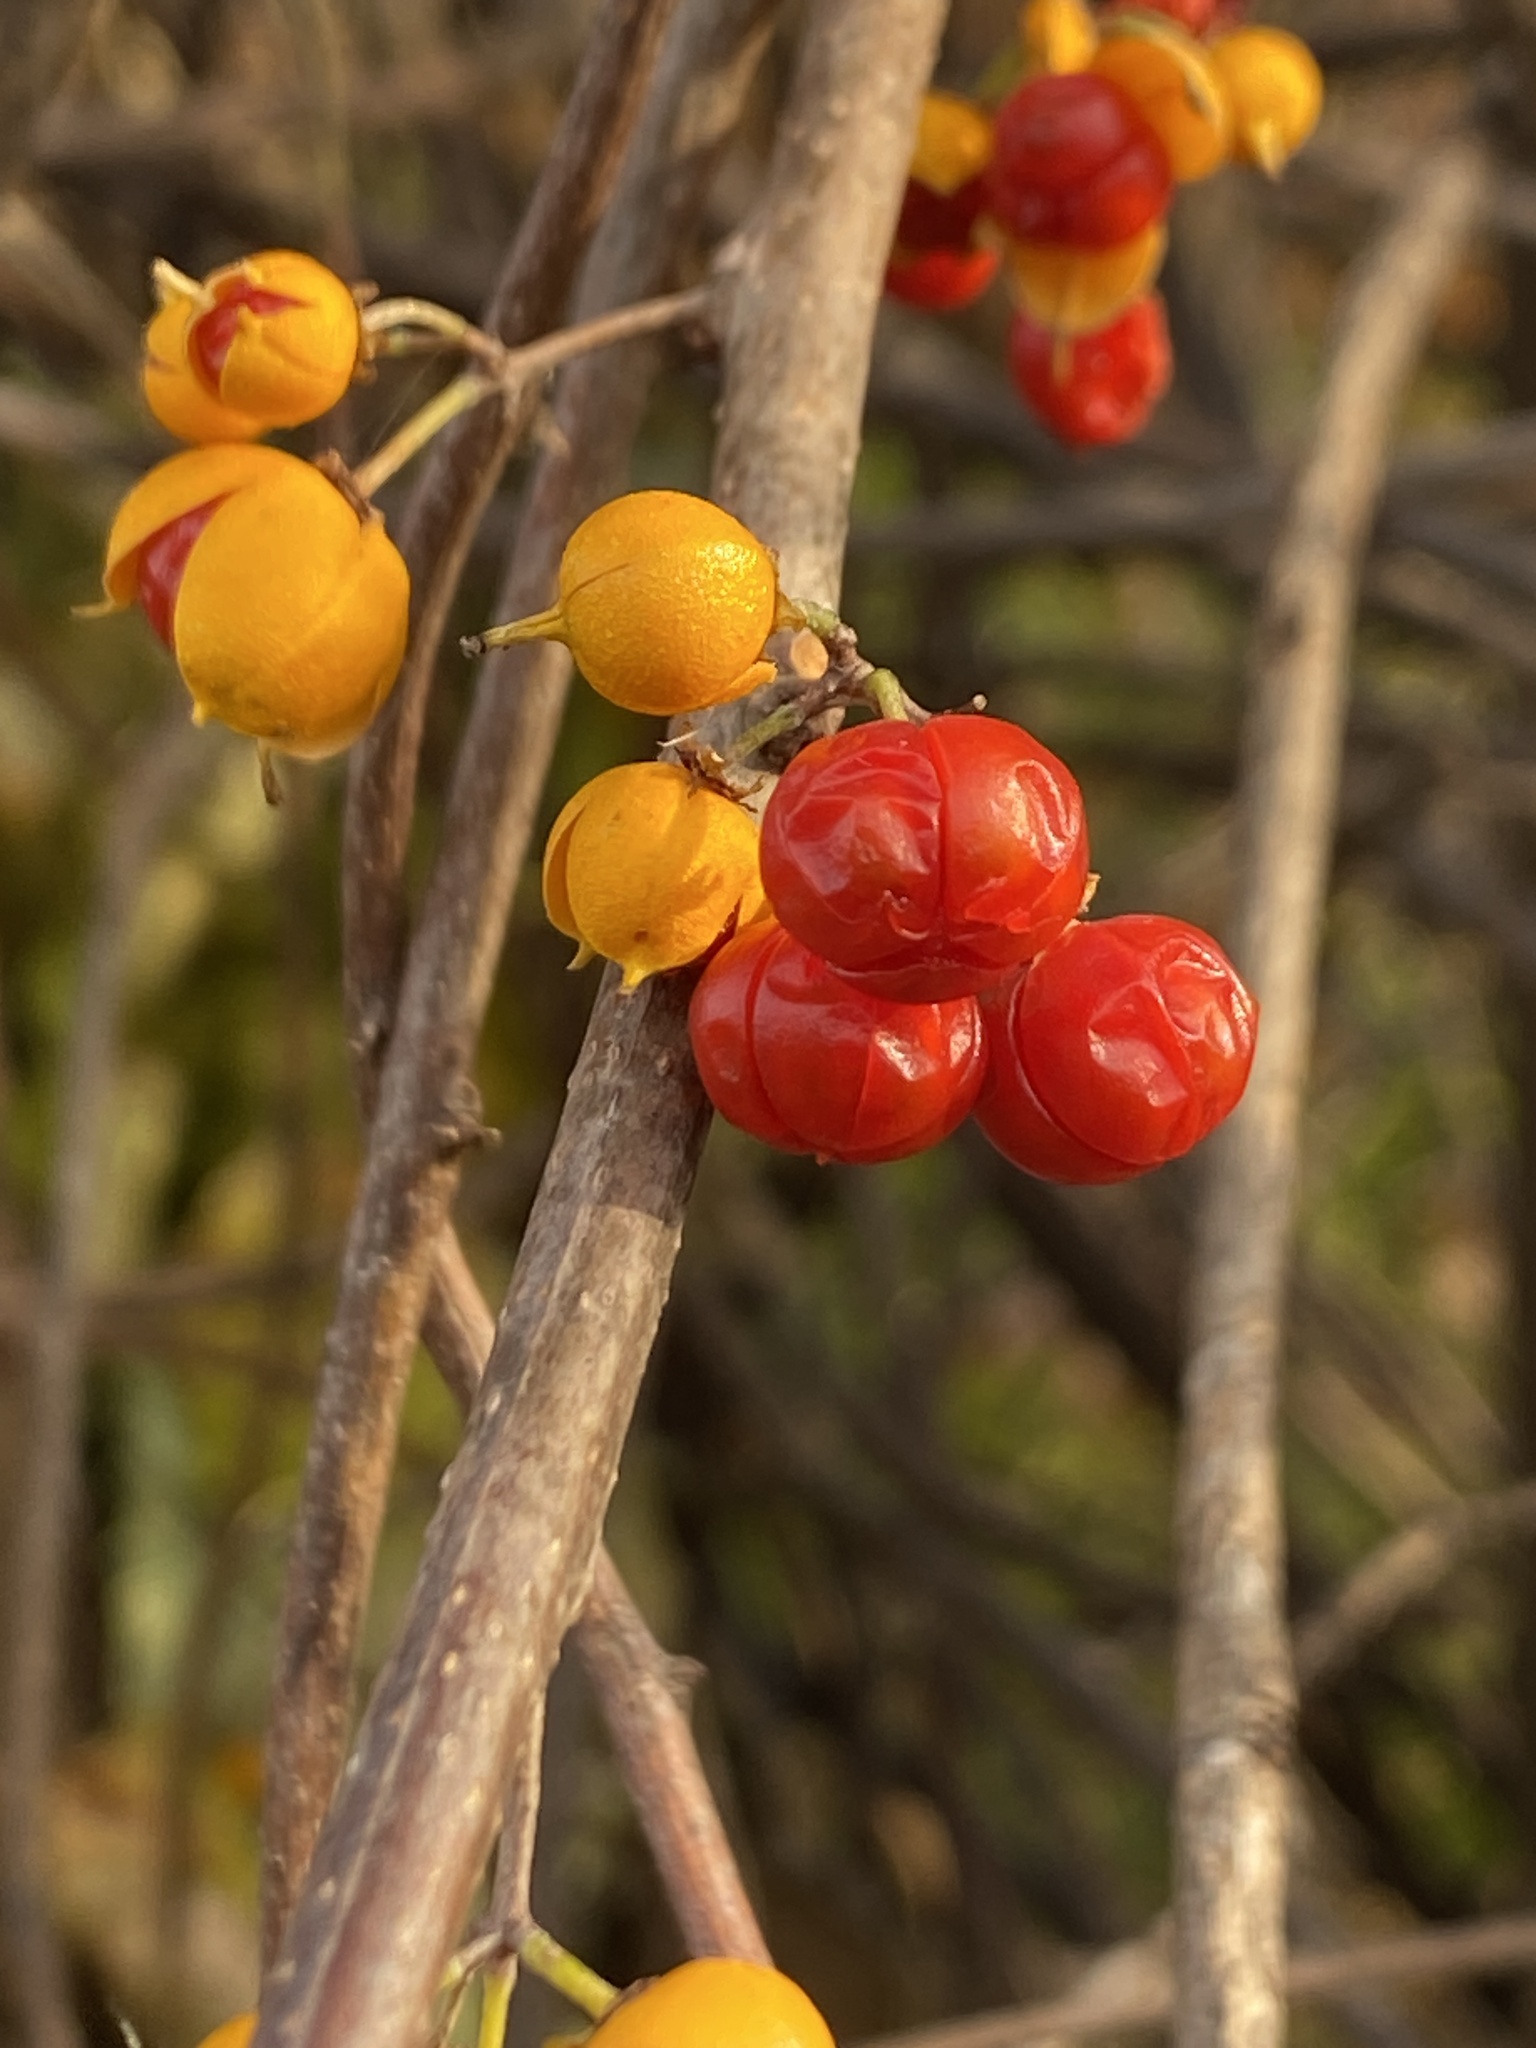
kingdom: Plantae
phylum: Tracheophyta
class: Magnoliopsida
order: Celastrales
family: Celastraceae
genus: Celastrus
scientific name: Celastrus orbiculatus
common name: Oriental bittersweet
